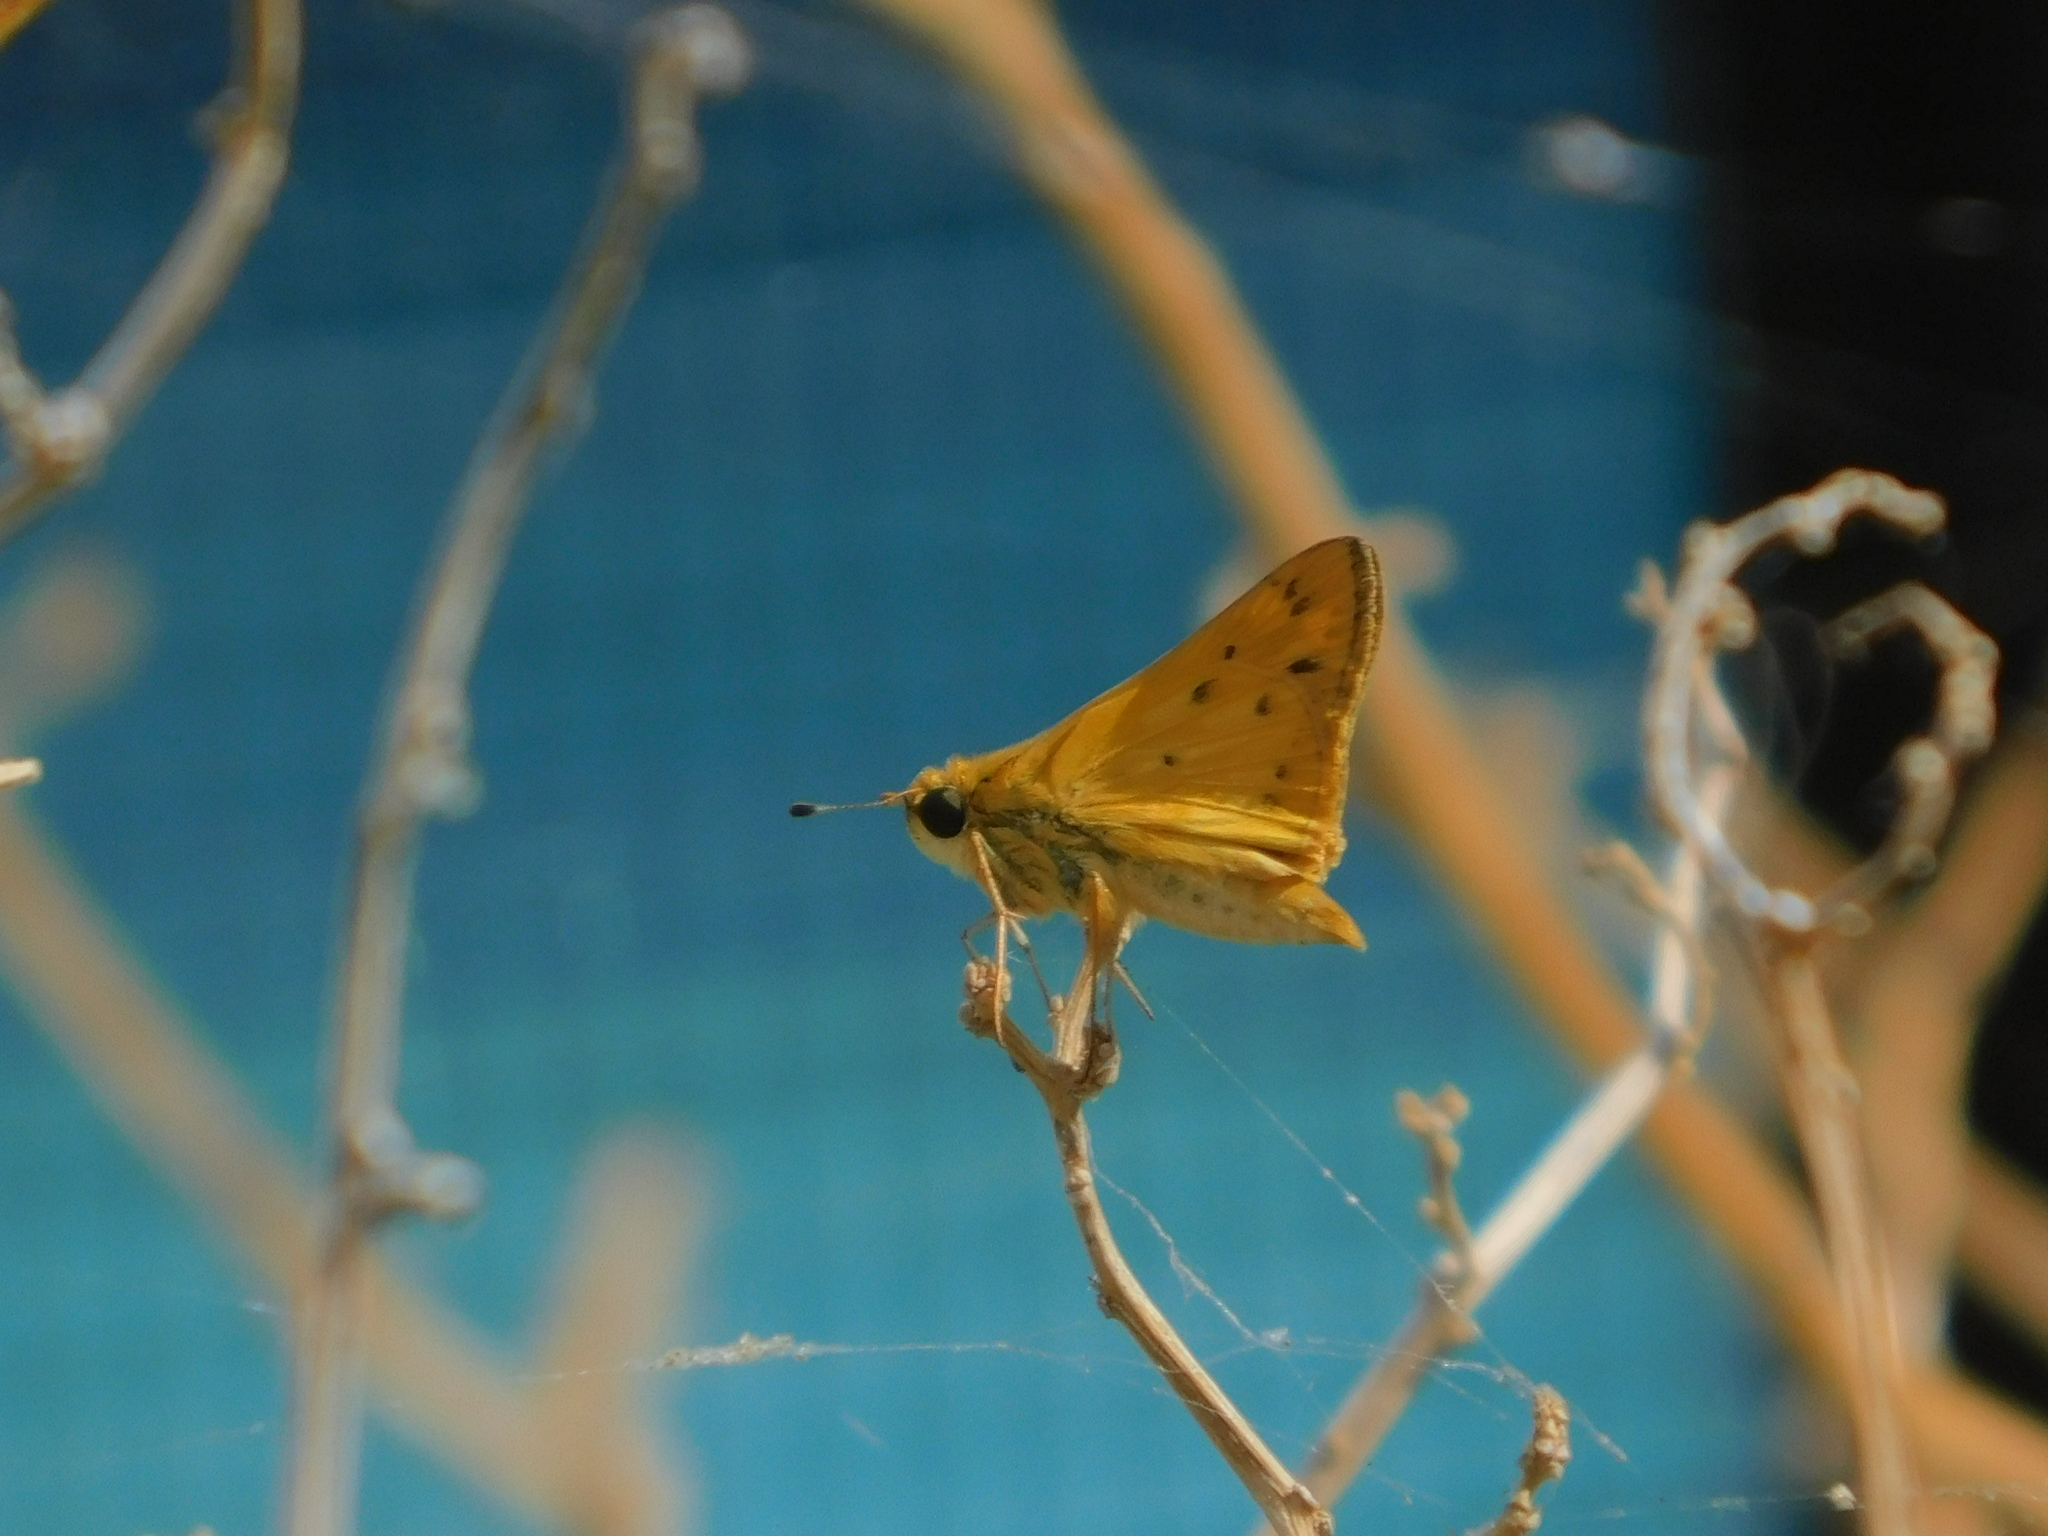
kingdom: Animalia
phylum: Arthropoda
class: Insecta
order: Lepidoptera
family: Hesperiidae
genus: Hylephila
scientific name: Hylephila phyleus
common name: Fiery skipper
